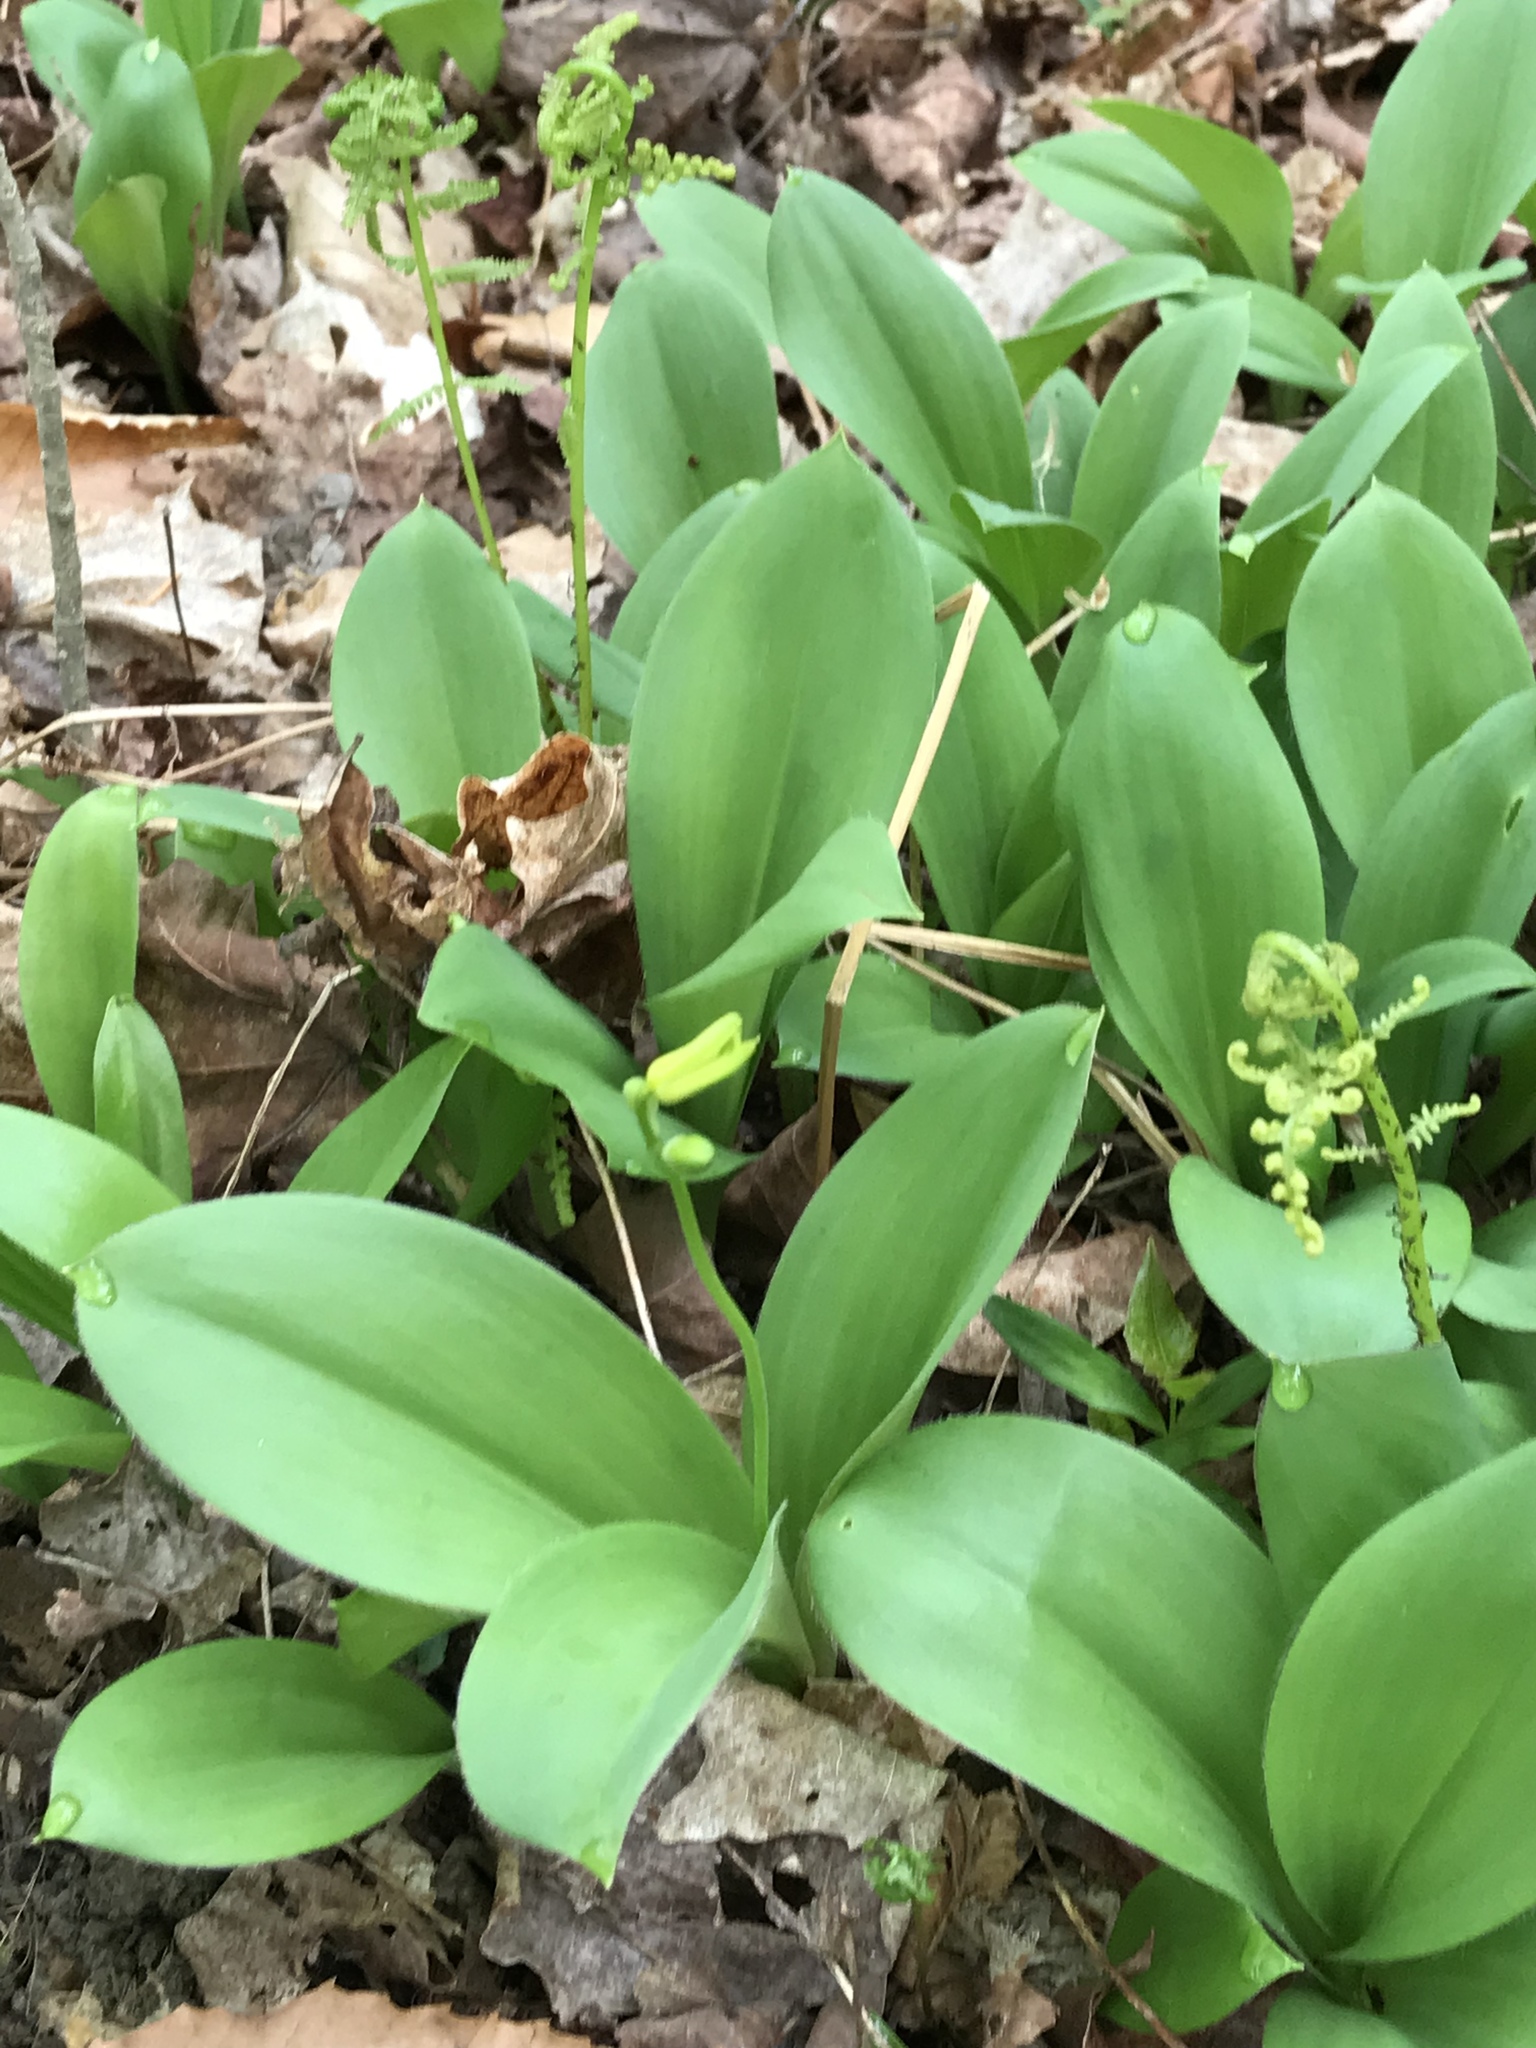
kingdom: Plantae
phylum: Tracheophyta
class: Liliopsida
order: Liliales
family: Liliaceae
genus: Clintonia
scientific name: Clintonia borealis
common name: Yellow clintonia
